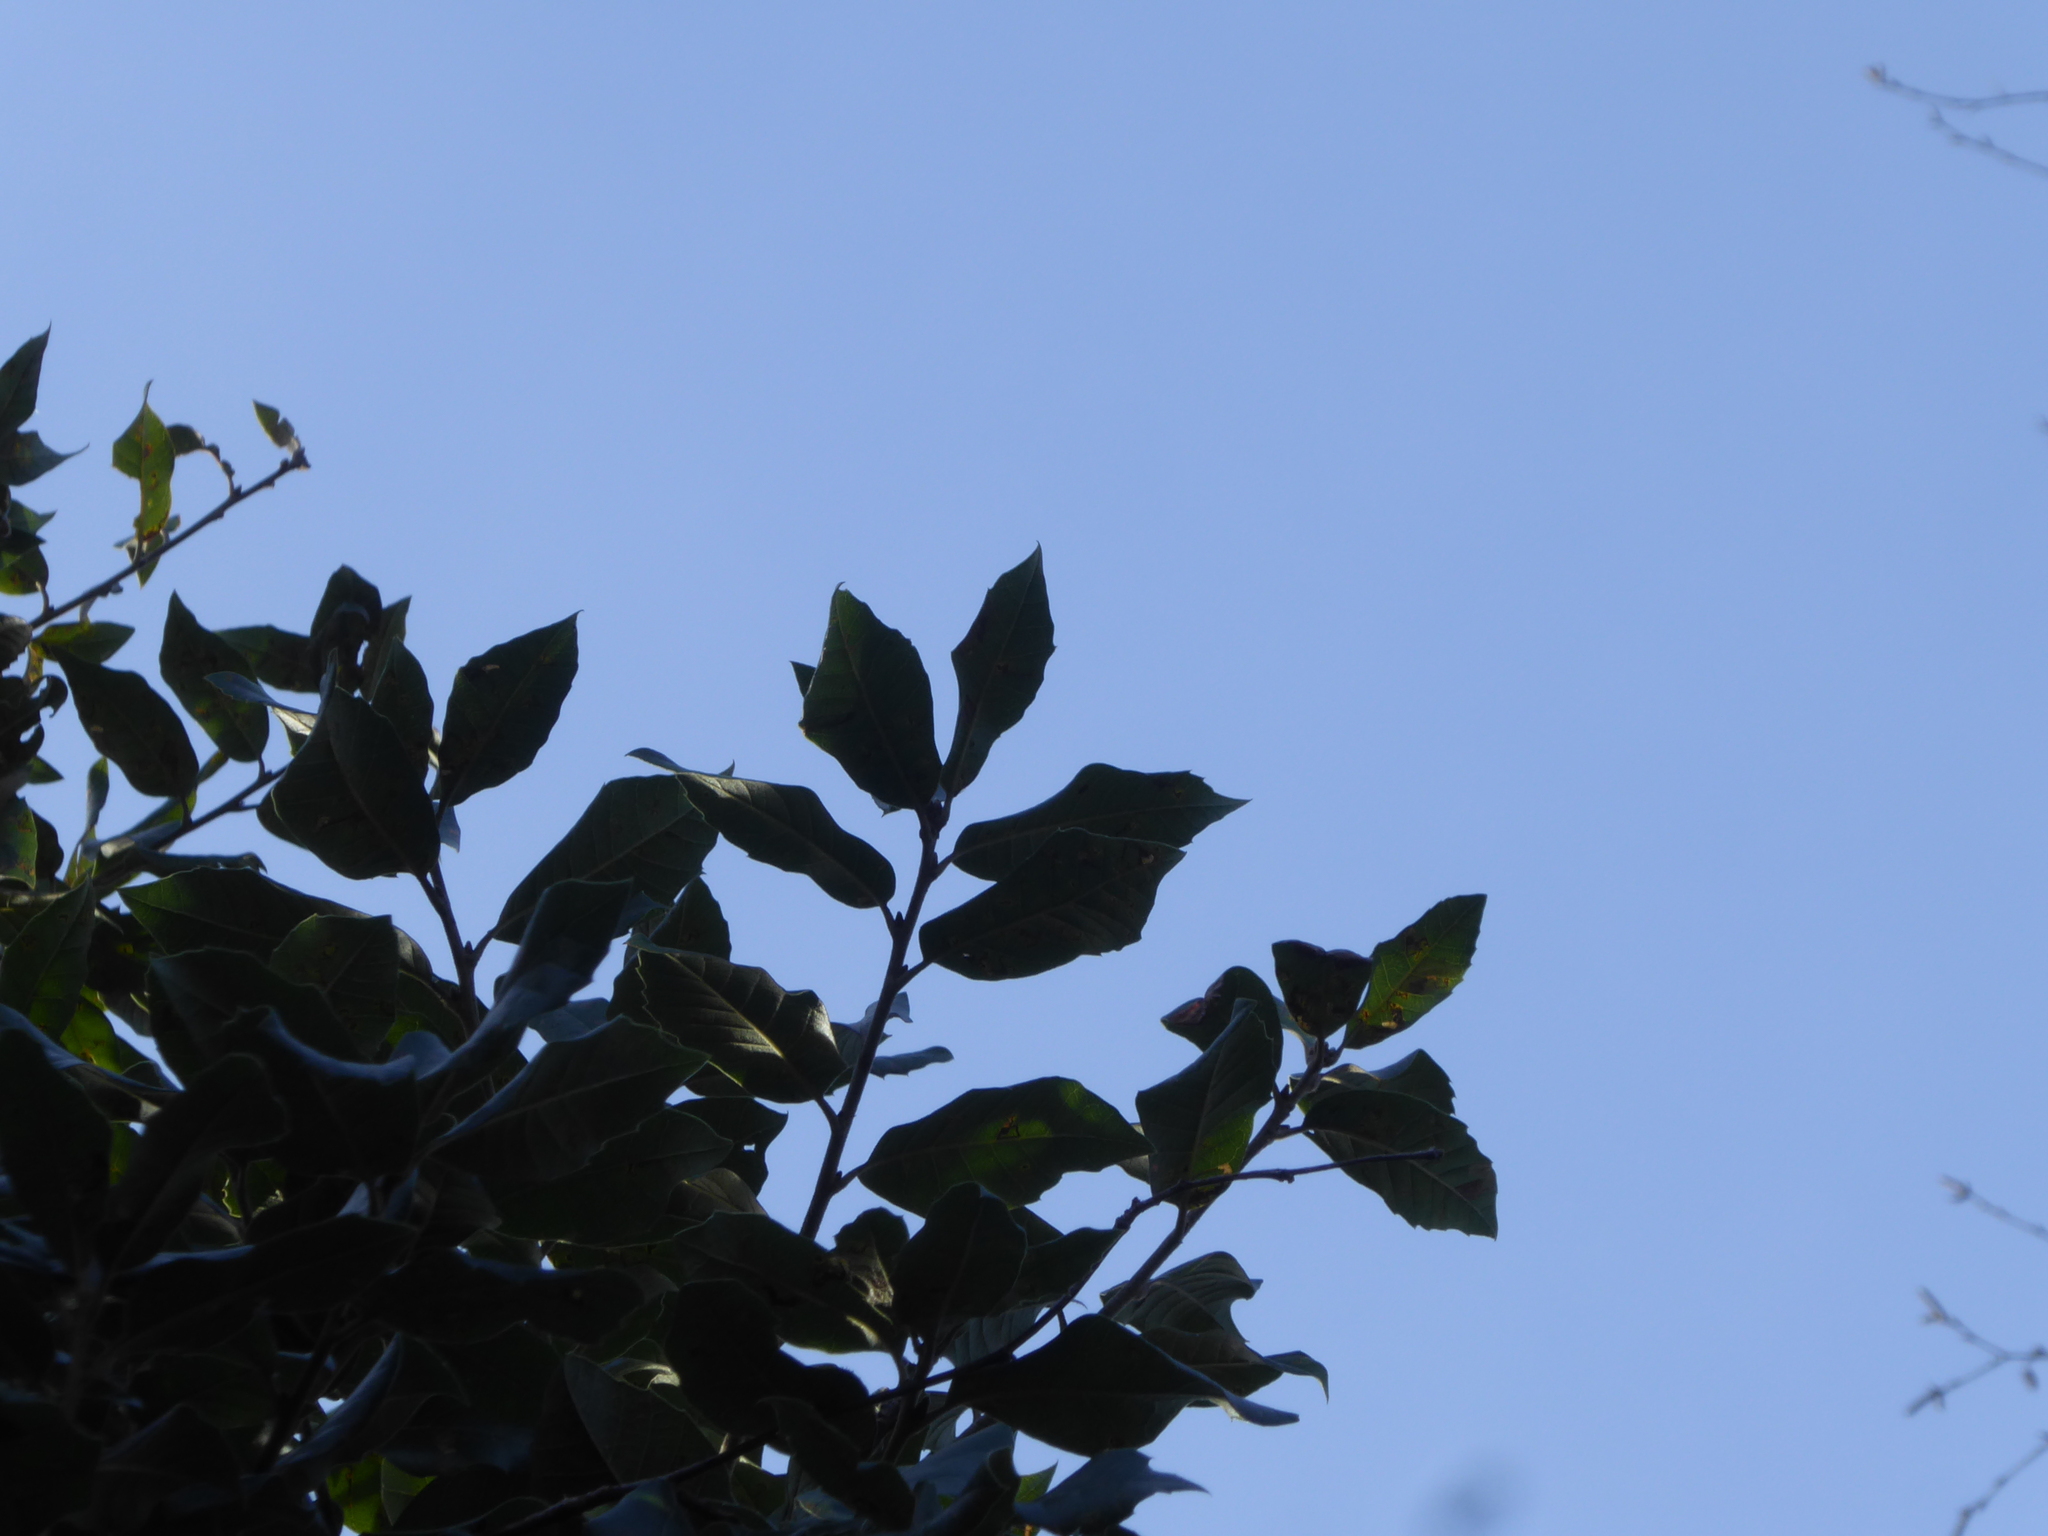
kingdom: Plantae
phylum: Tracheophyta
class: Magnoliopsida
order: Fagales
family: Fagaceae
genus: Quercus
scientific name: Quercus ilex
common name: Evergreen oak
